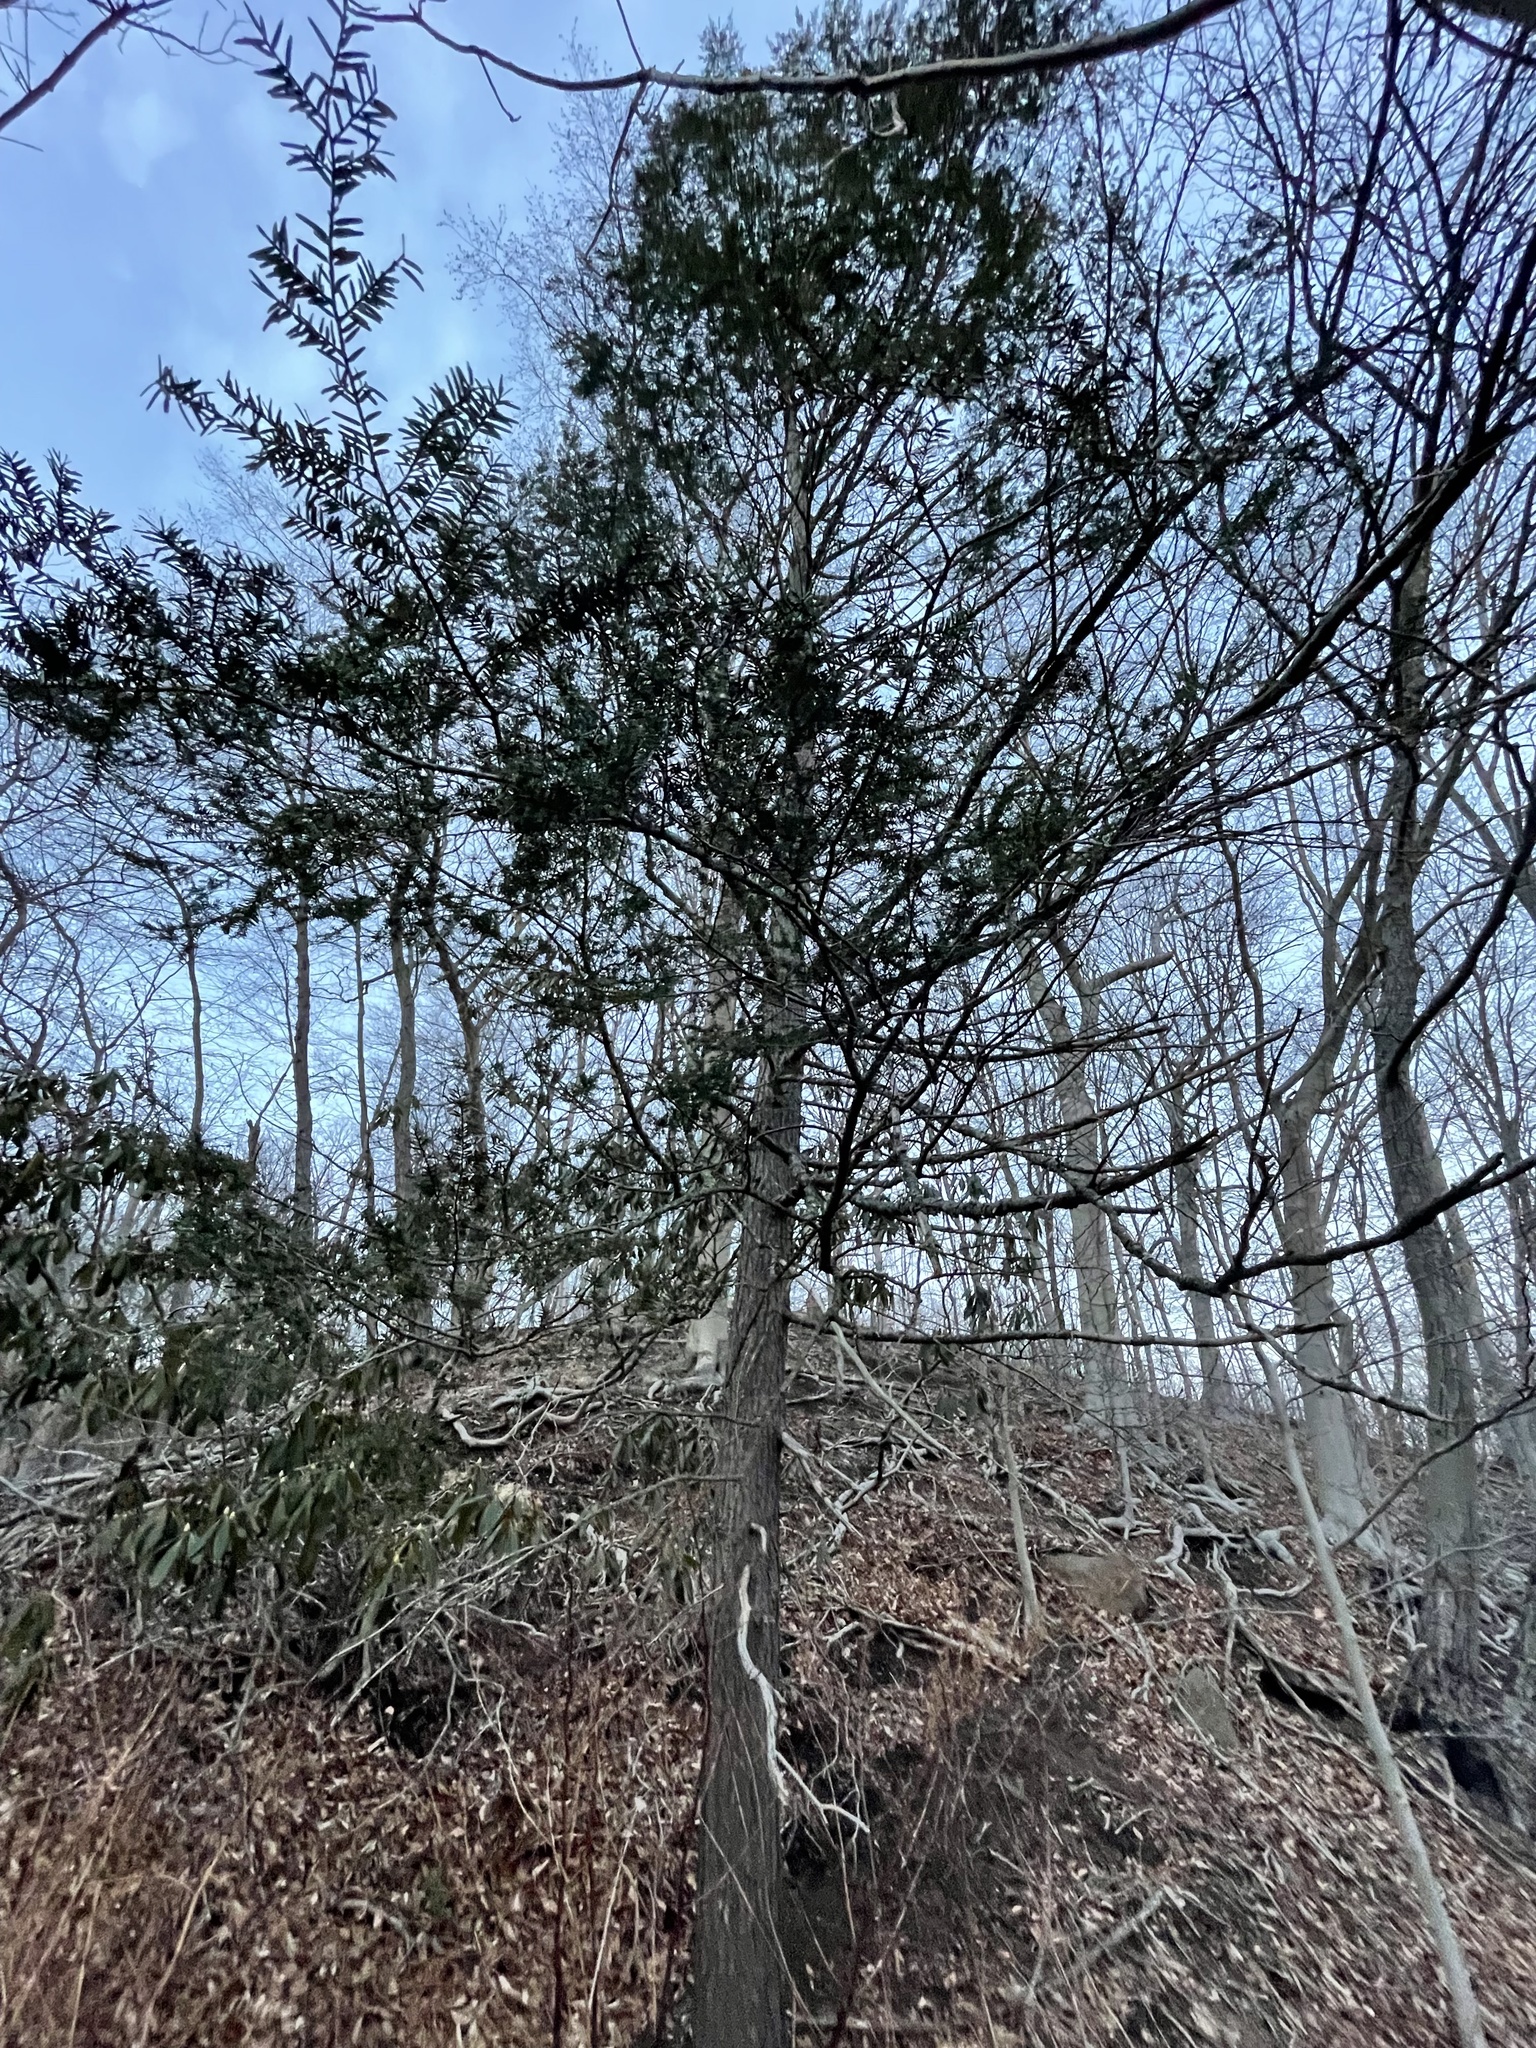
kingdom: Plantae
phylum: Tracheophyta
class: Pinopsida
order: Pinales
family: Pinaceae
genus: Tsuga
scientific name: Tsuga canadensis
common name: Eastern hemlock
